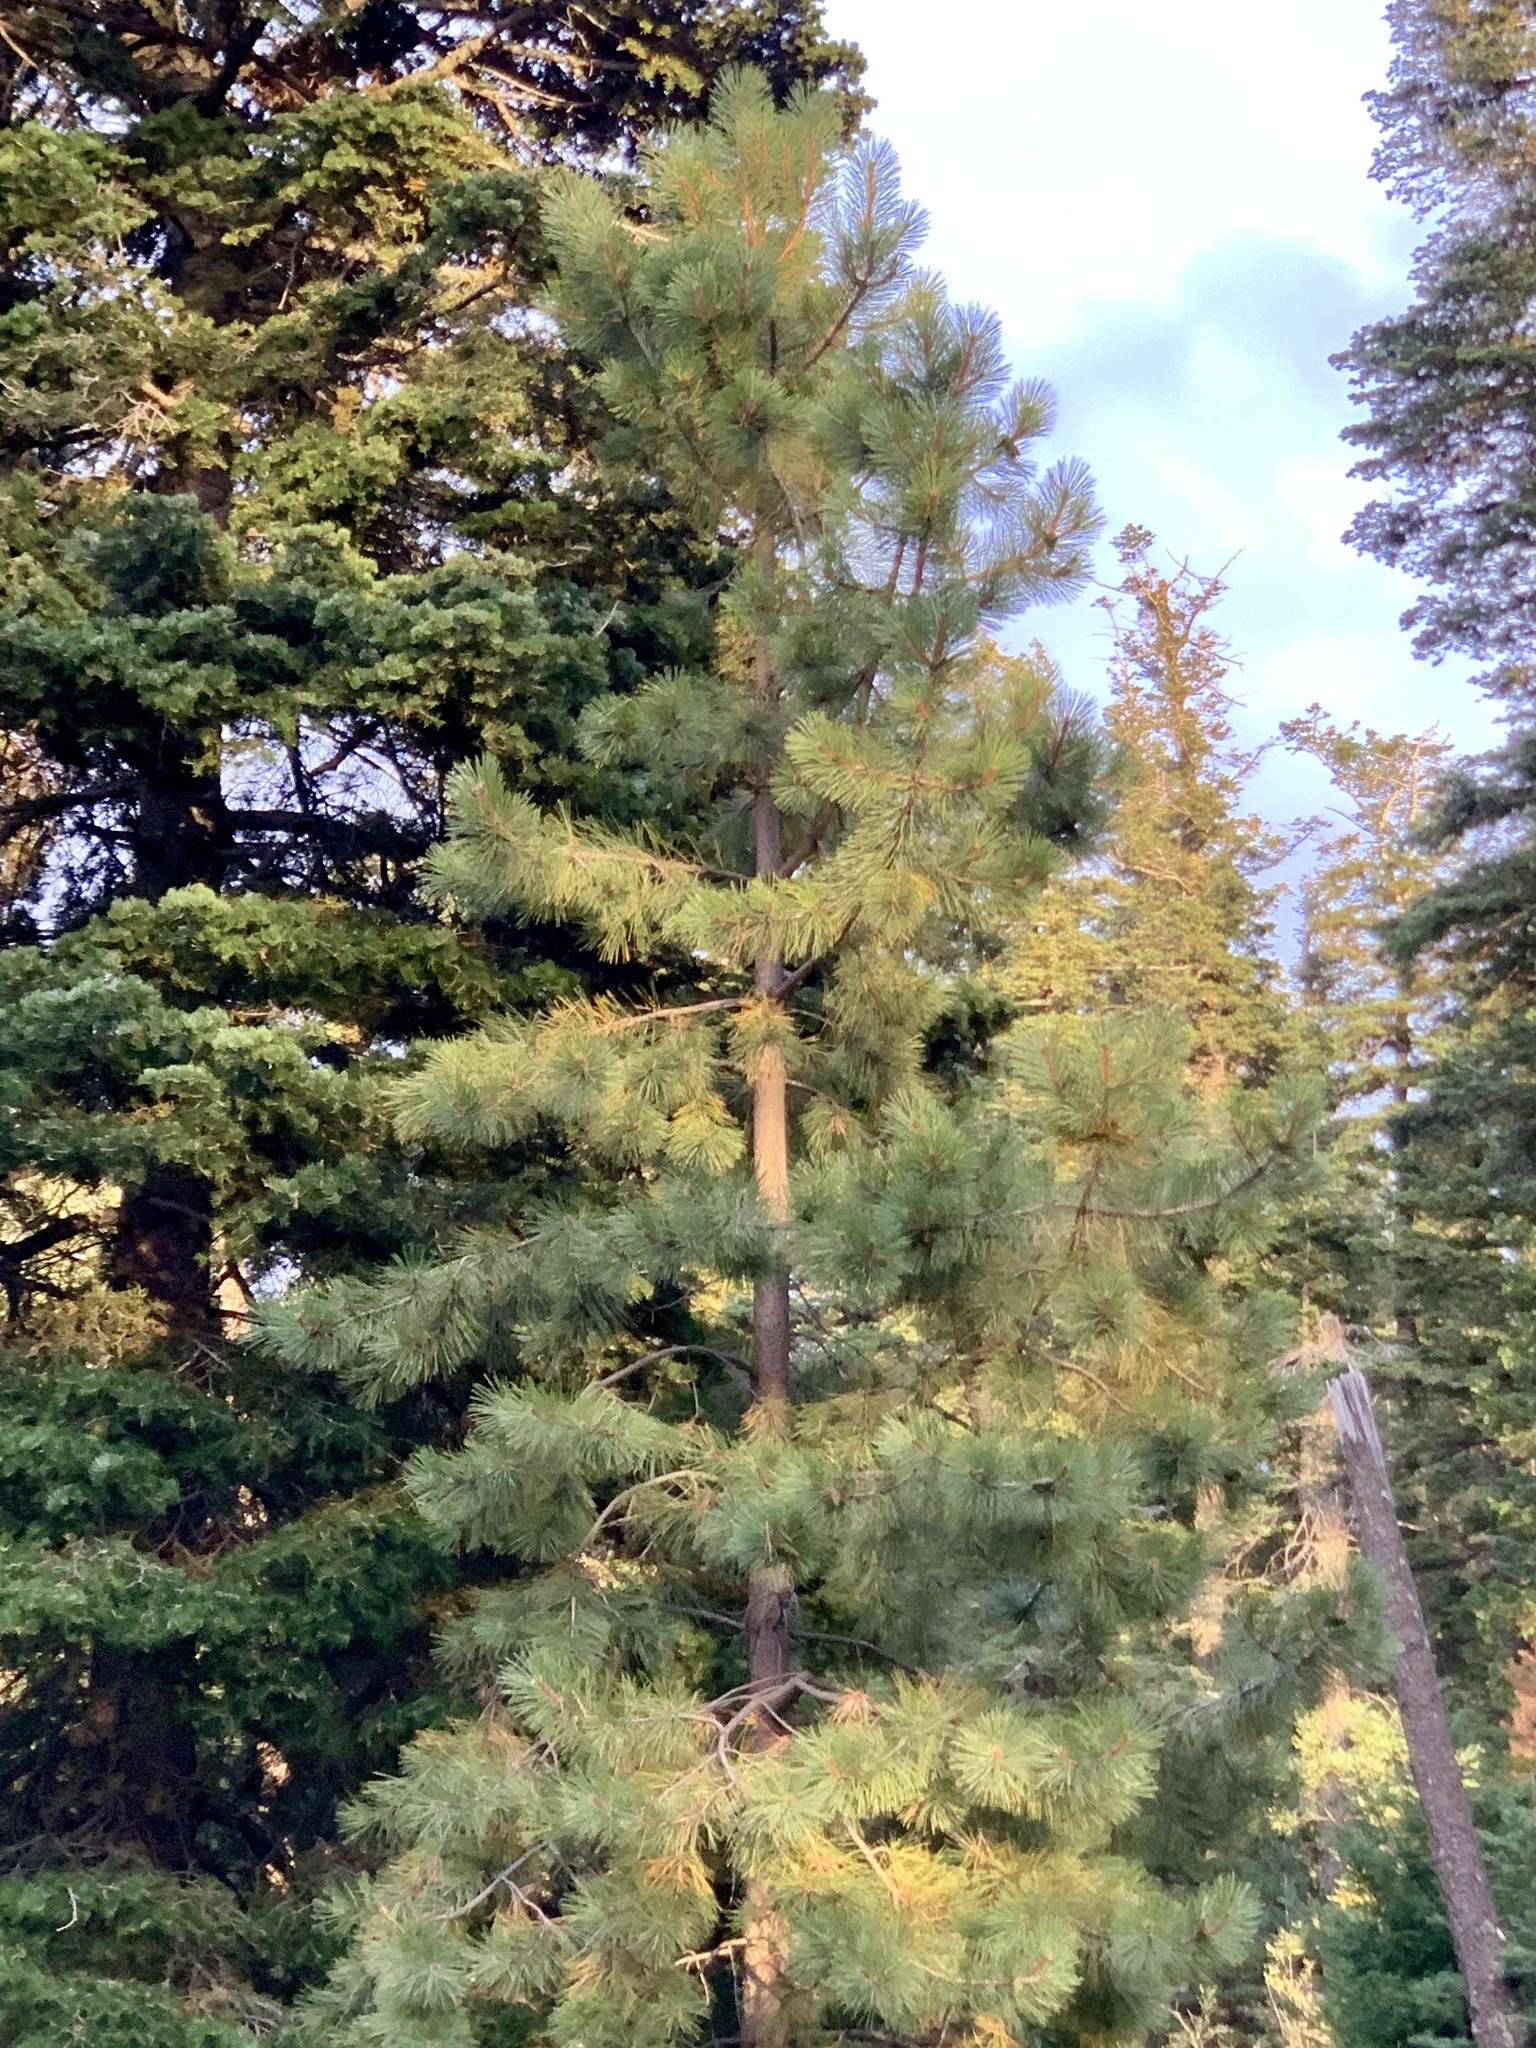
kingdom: Plantae
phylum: Tracheophyta
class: Pinopsida
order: Pinales
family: Pinaceae
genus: Pinus
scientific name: Pinus ponderosa
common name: Western yellow-pine
